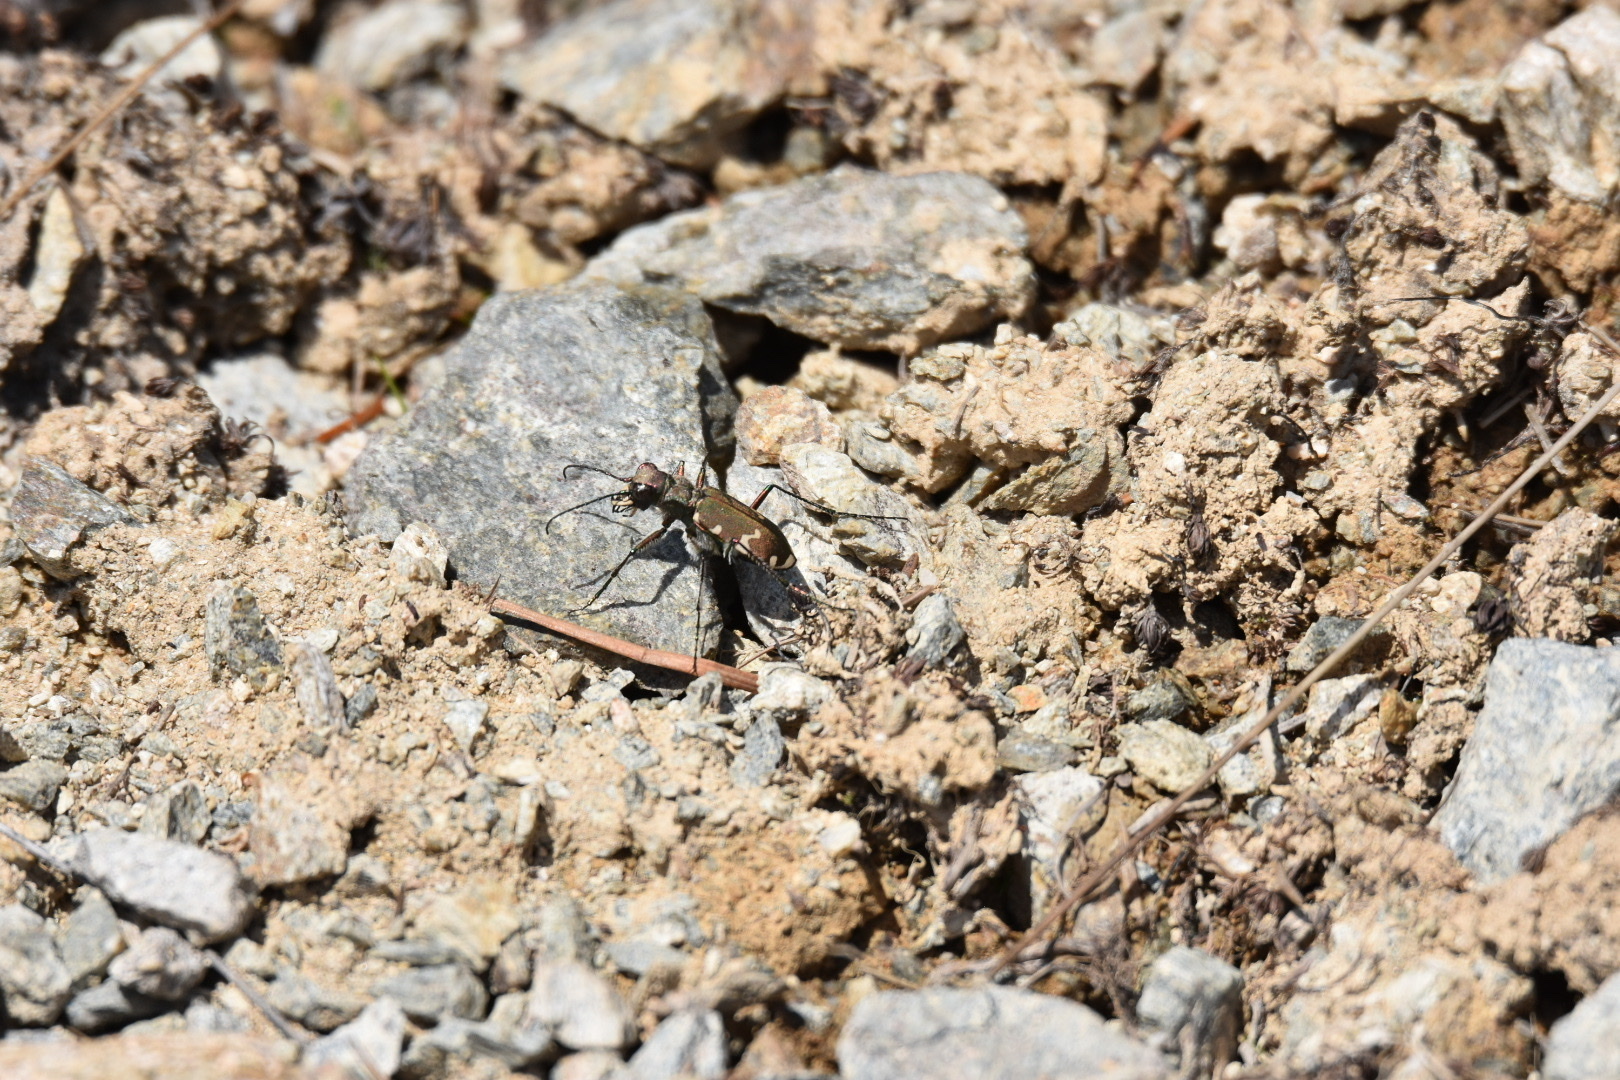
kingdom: Animalia
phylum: Arthropoda
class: Insecta
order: Coleoptera
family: Carabidae
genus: Cicindela
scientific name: Cicindela sylvicola
